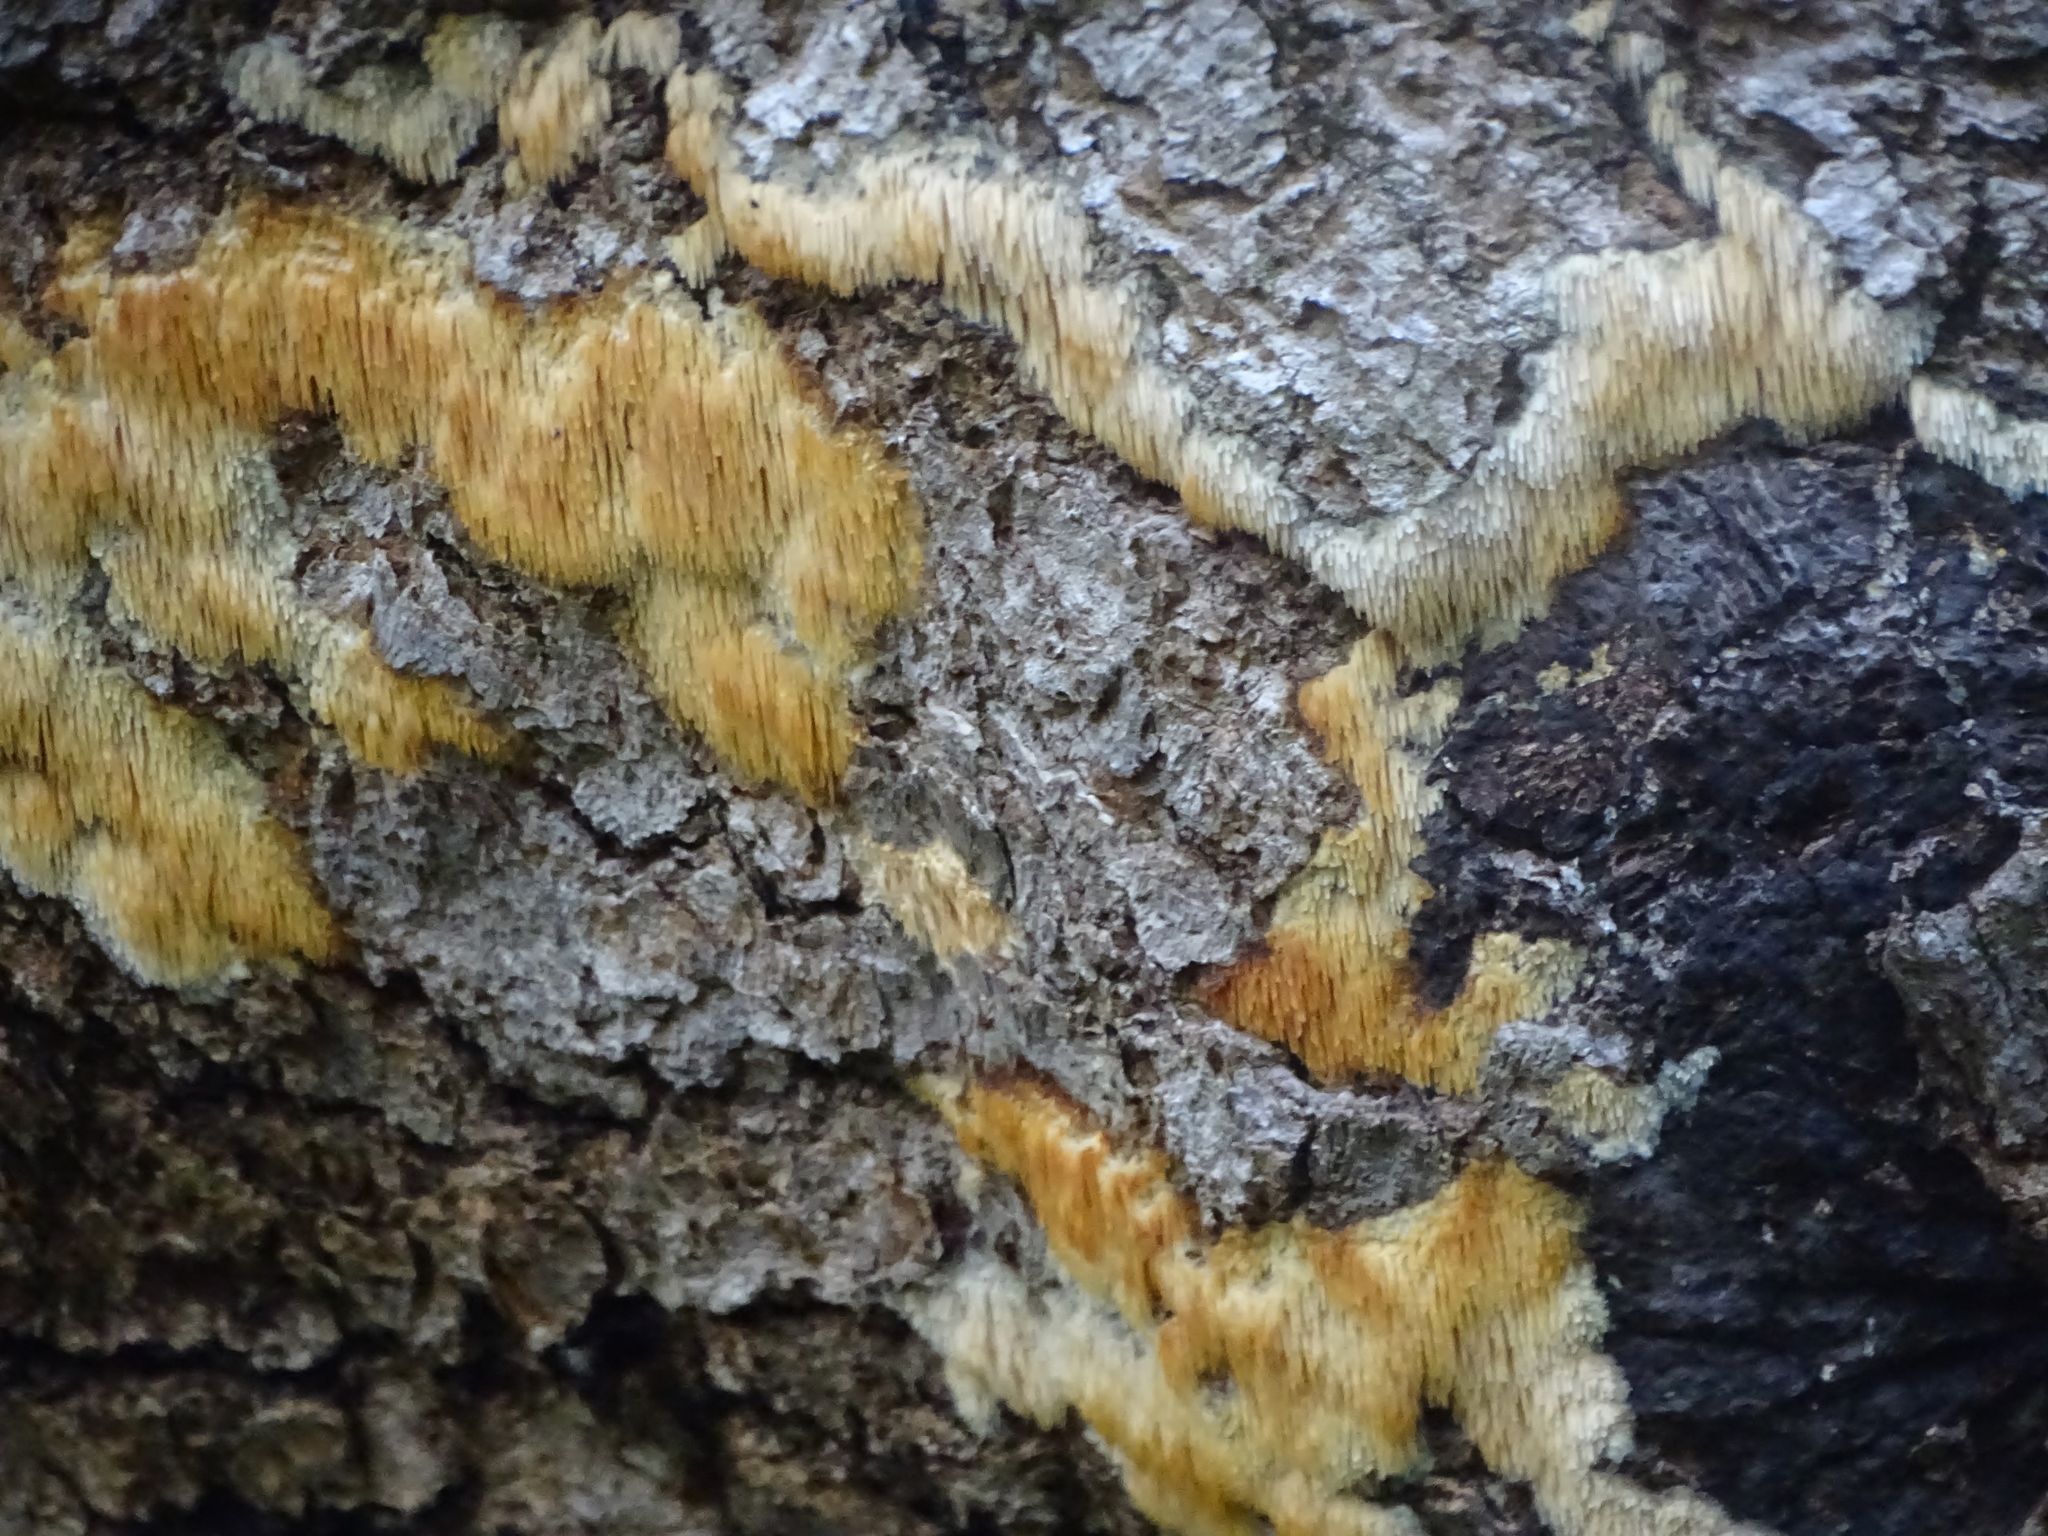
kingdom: Fungi
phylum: Basidiomycota
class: Agaricomycetes
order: Agaricales
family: Radulomycetaceae
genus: Radulomyces
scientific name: Radulomyces copelandii
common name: Asian beauty
